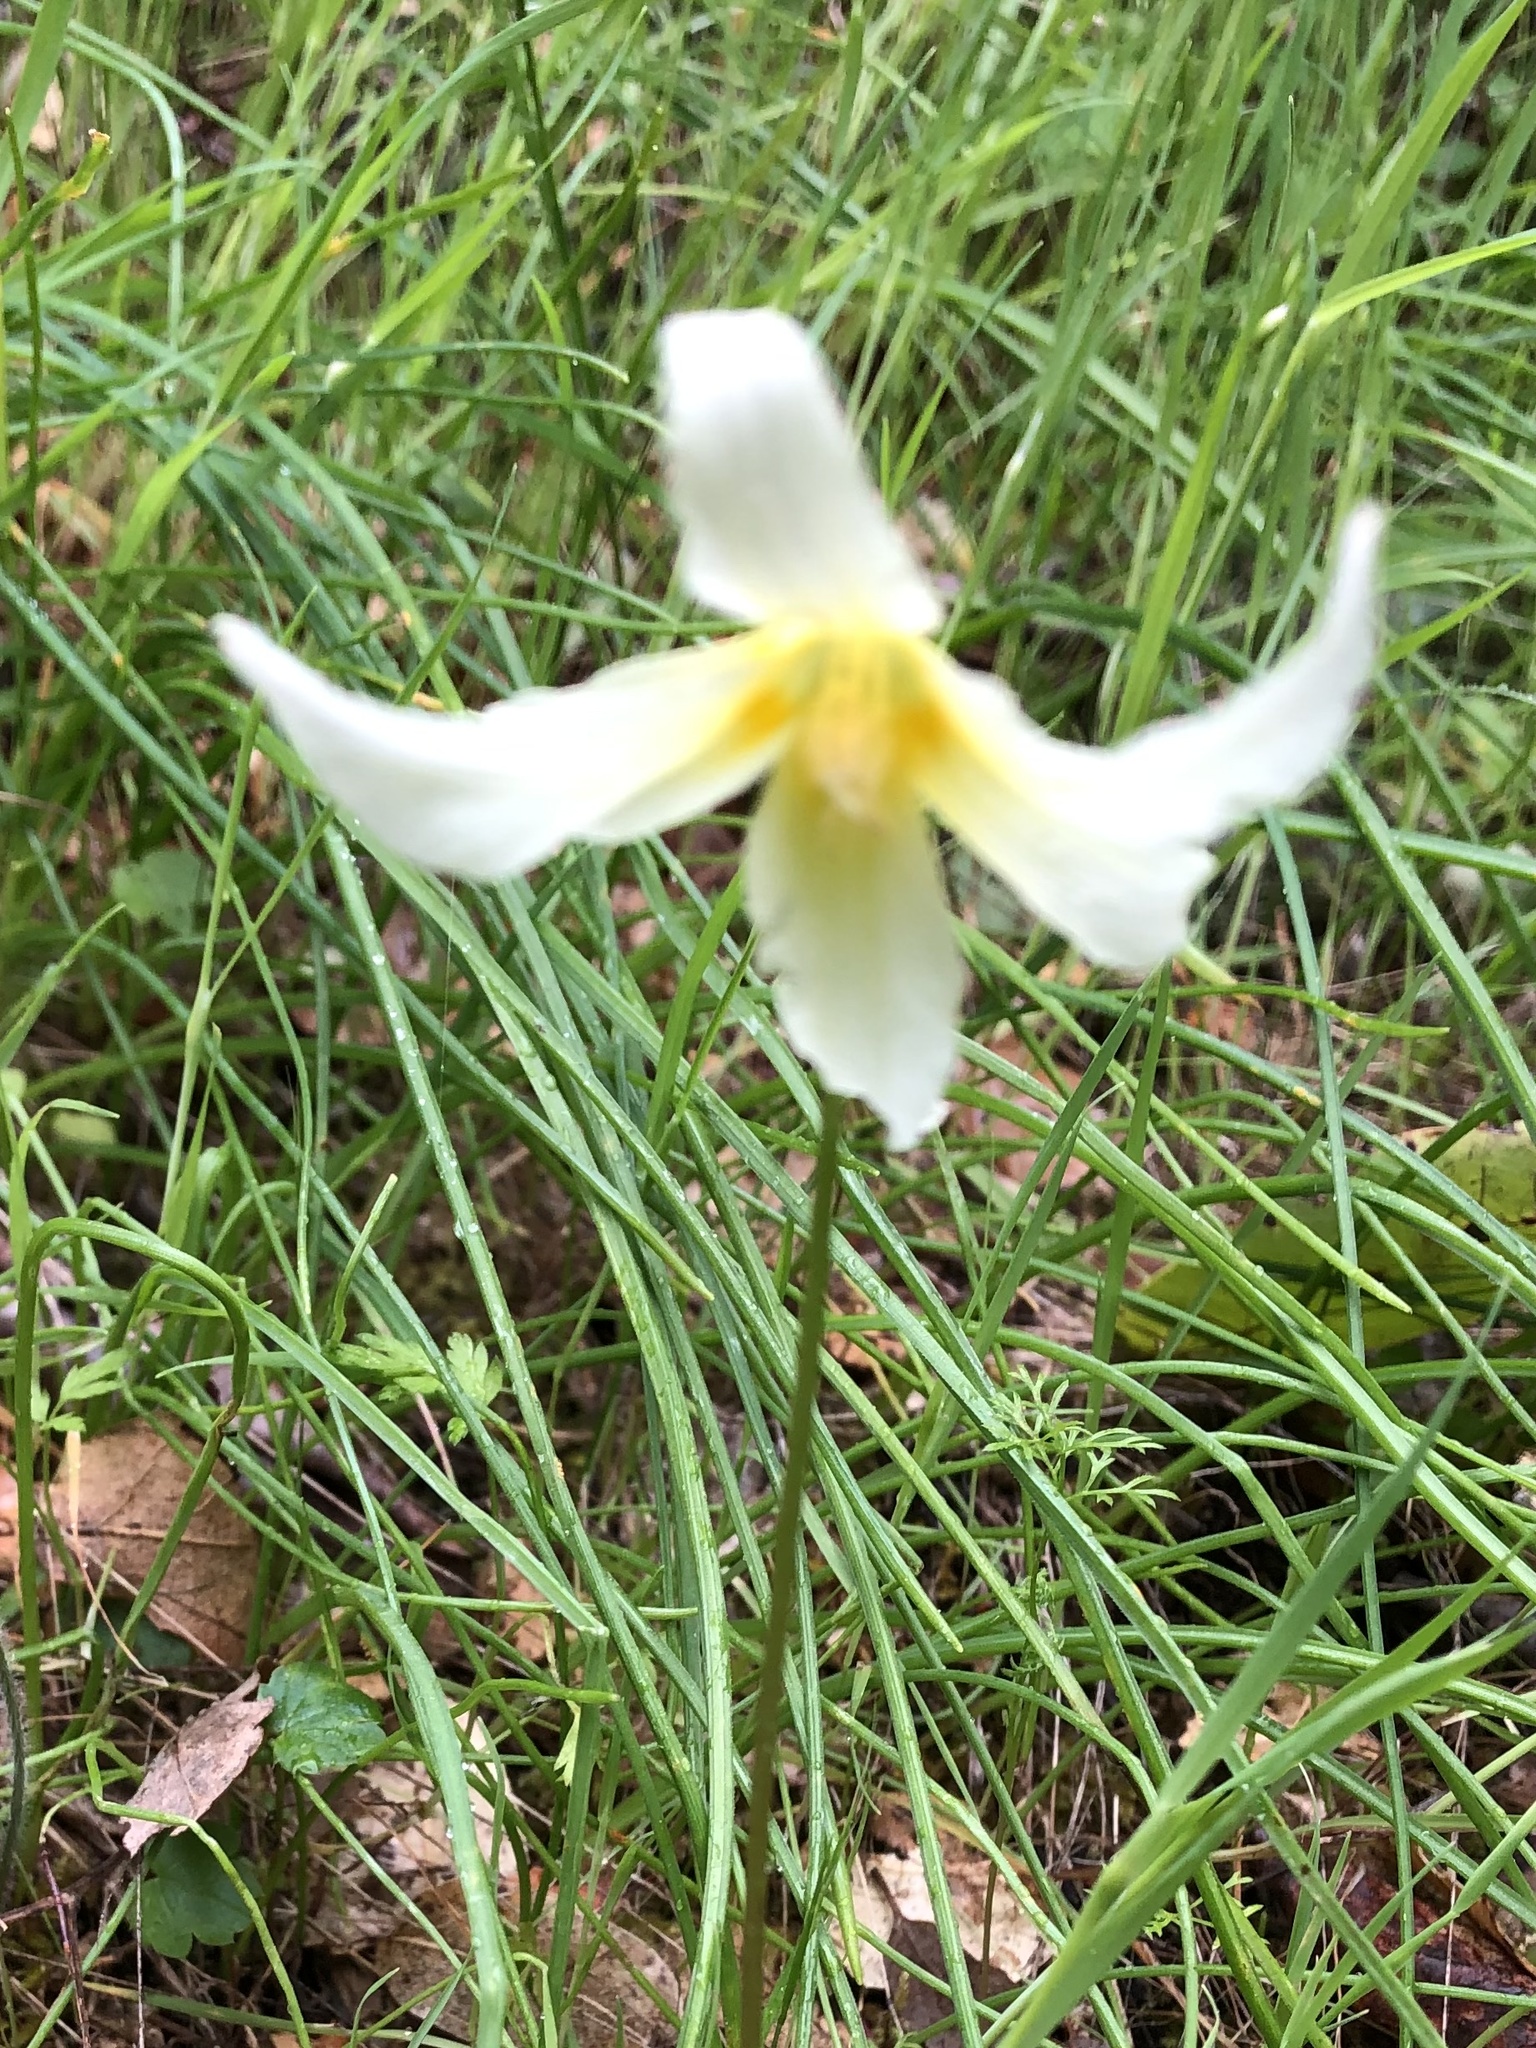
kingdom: Plantae
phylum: Tracheophyta
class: Liliopsida
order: Liliales
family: Liliaceae
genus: Erythronium
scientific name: Erythronium californicum
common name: Fawn-lily
